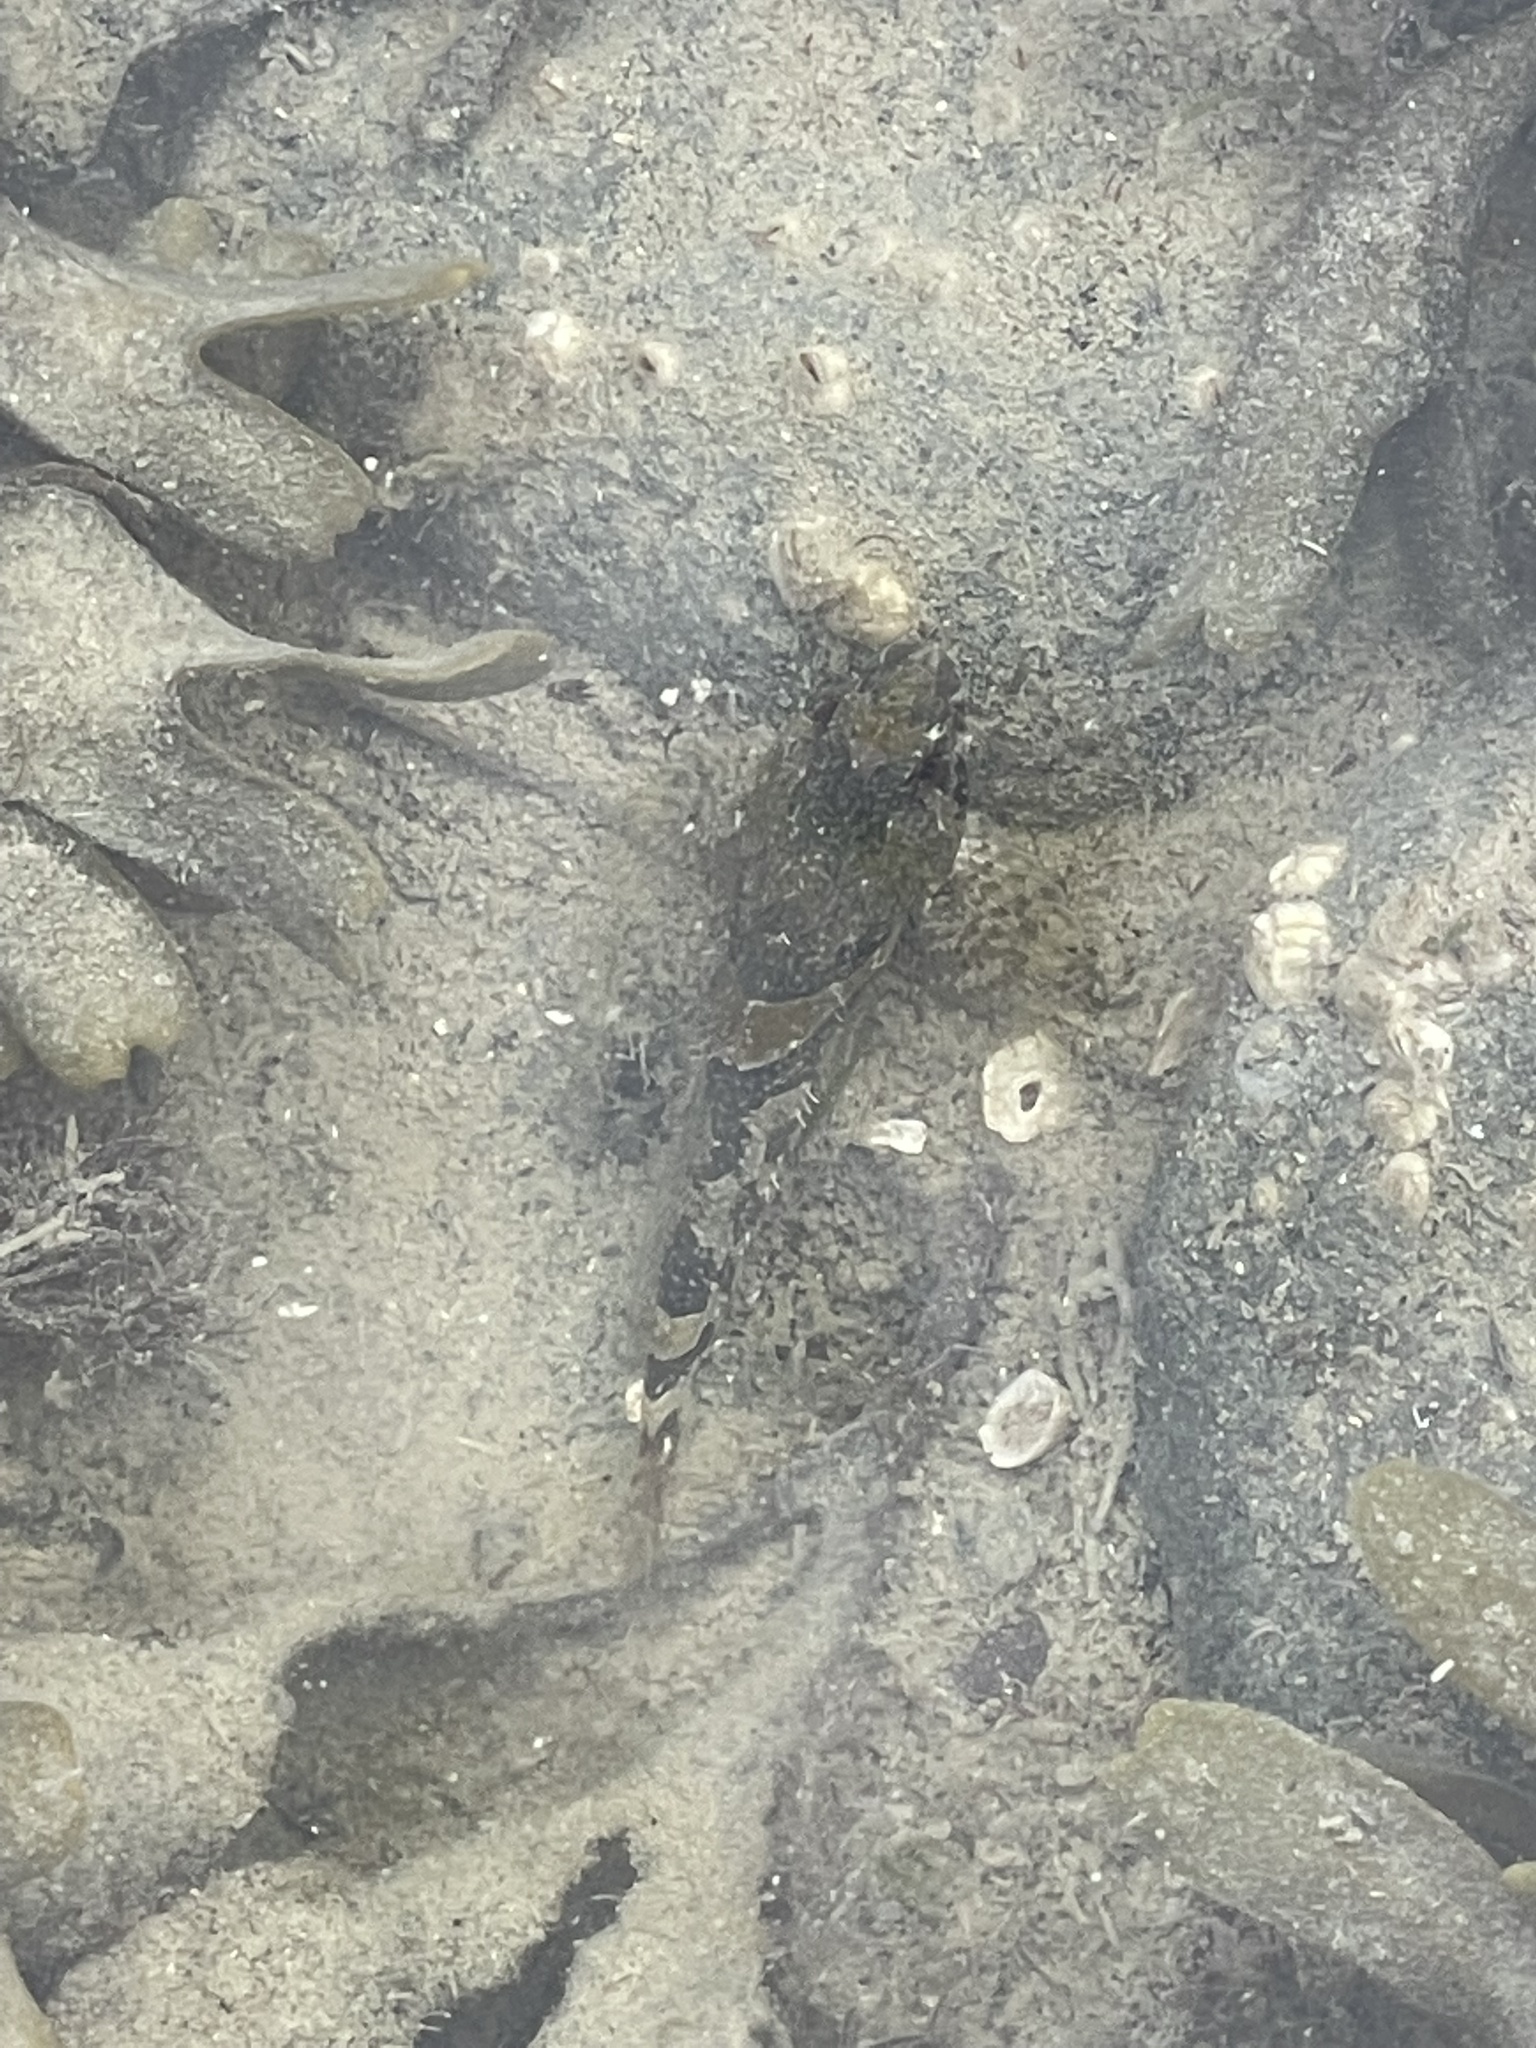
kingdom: Animalia
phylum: Chordata
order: Scorpaeniformes
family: Cottidae
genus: Oligocottus
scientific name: Oligocottus maculosus
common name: Tidepool sculpin
